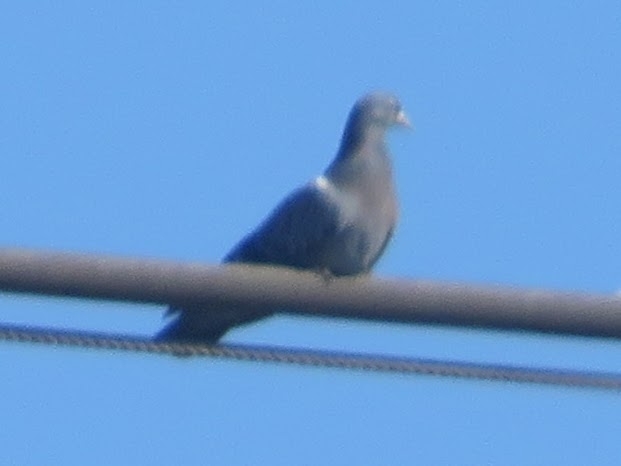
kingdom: Animalia
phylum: Chordata
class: Aves
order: Columbiformes
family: Columbidae
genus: Columba
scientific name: Columba livia
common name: Rock pigeon
